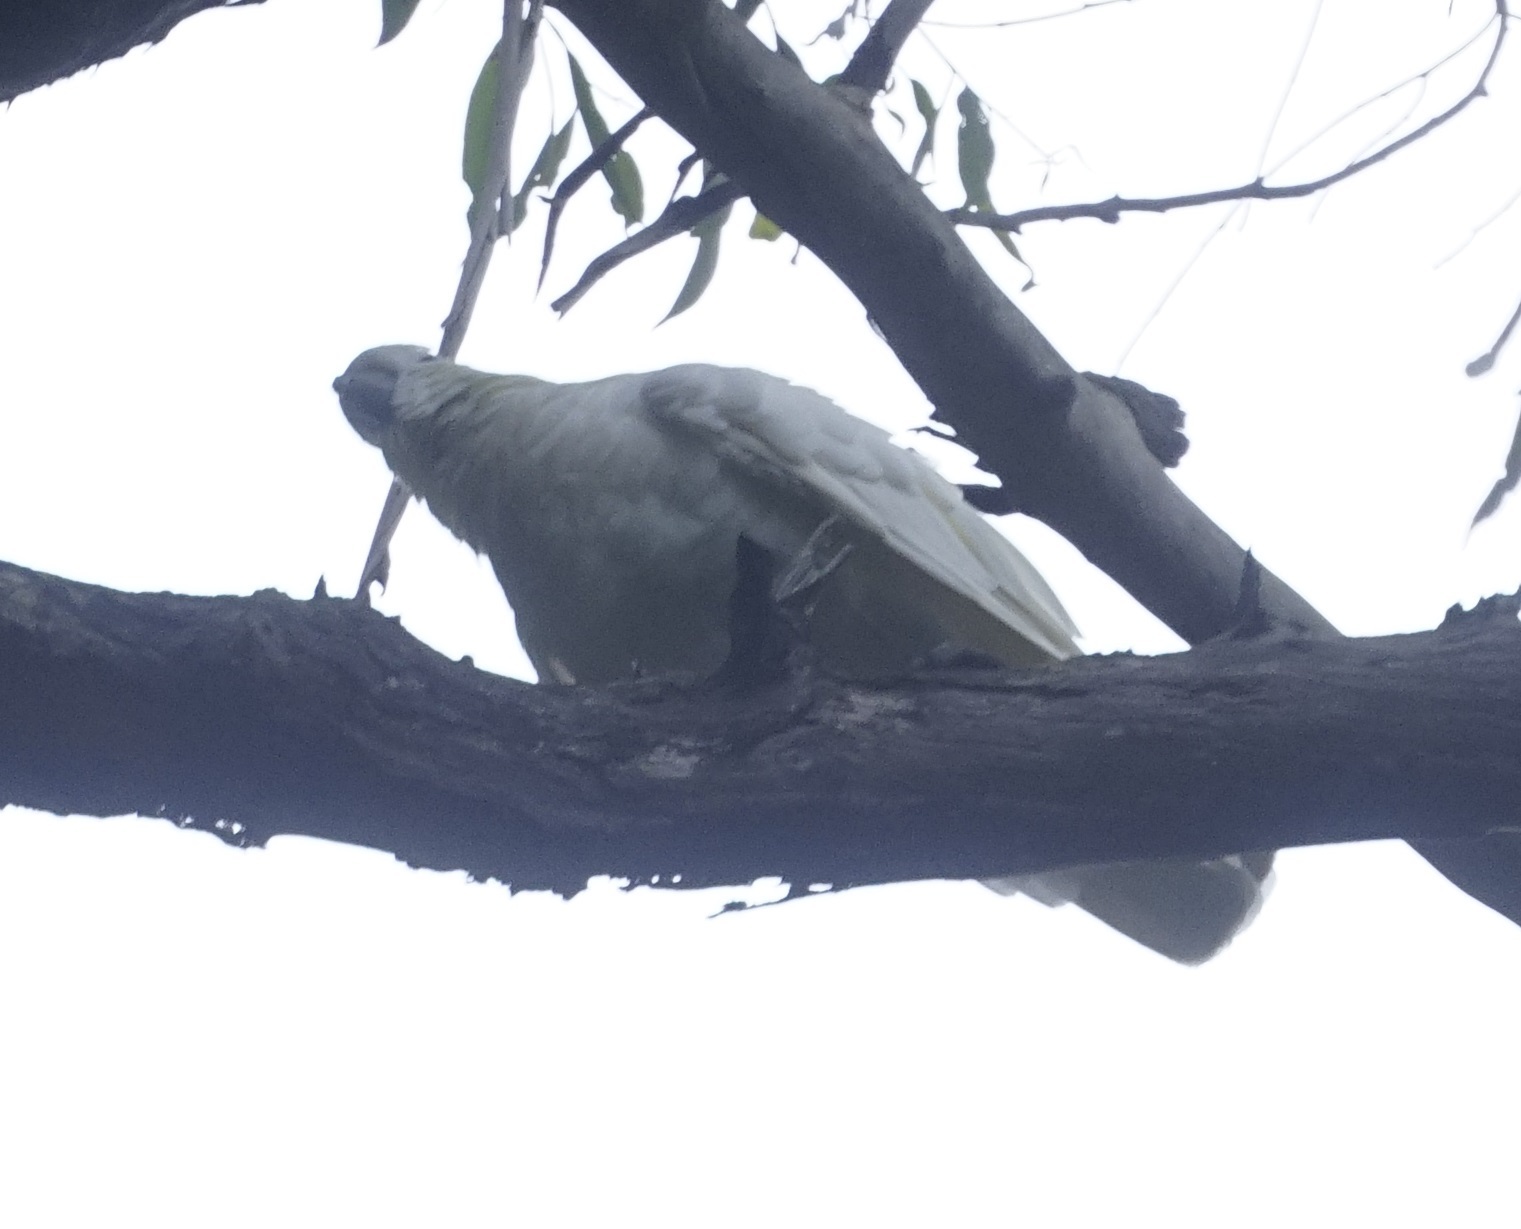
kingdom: Animalia
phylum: Chordata
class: Aves
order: Psittaciformes
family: Psittacidae
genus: Cacatua
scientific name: Cacatua galerita
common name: Sulphur-crested cockatoo
